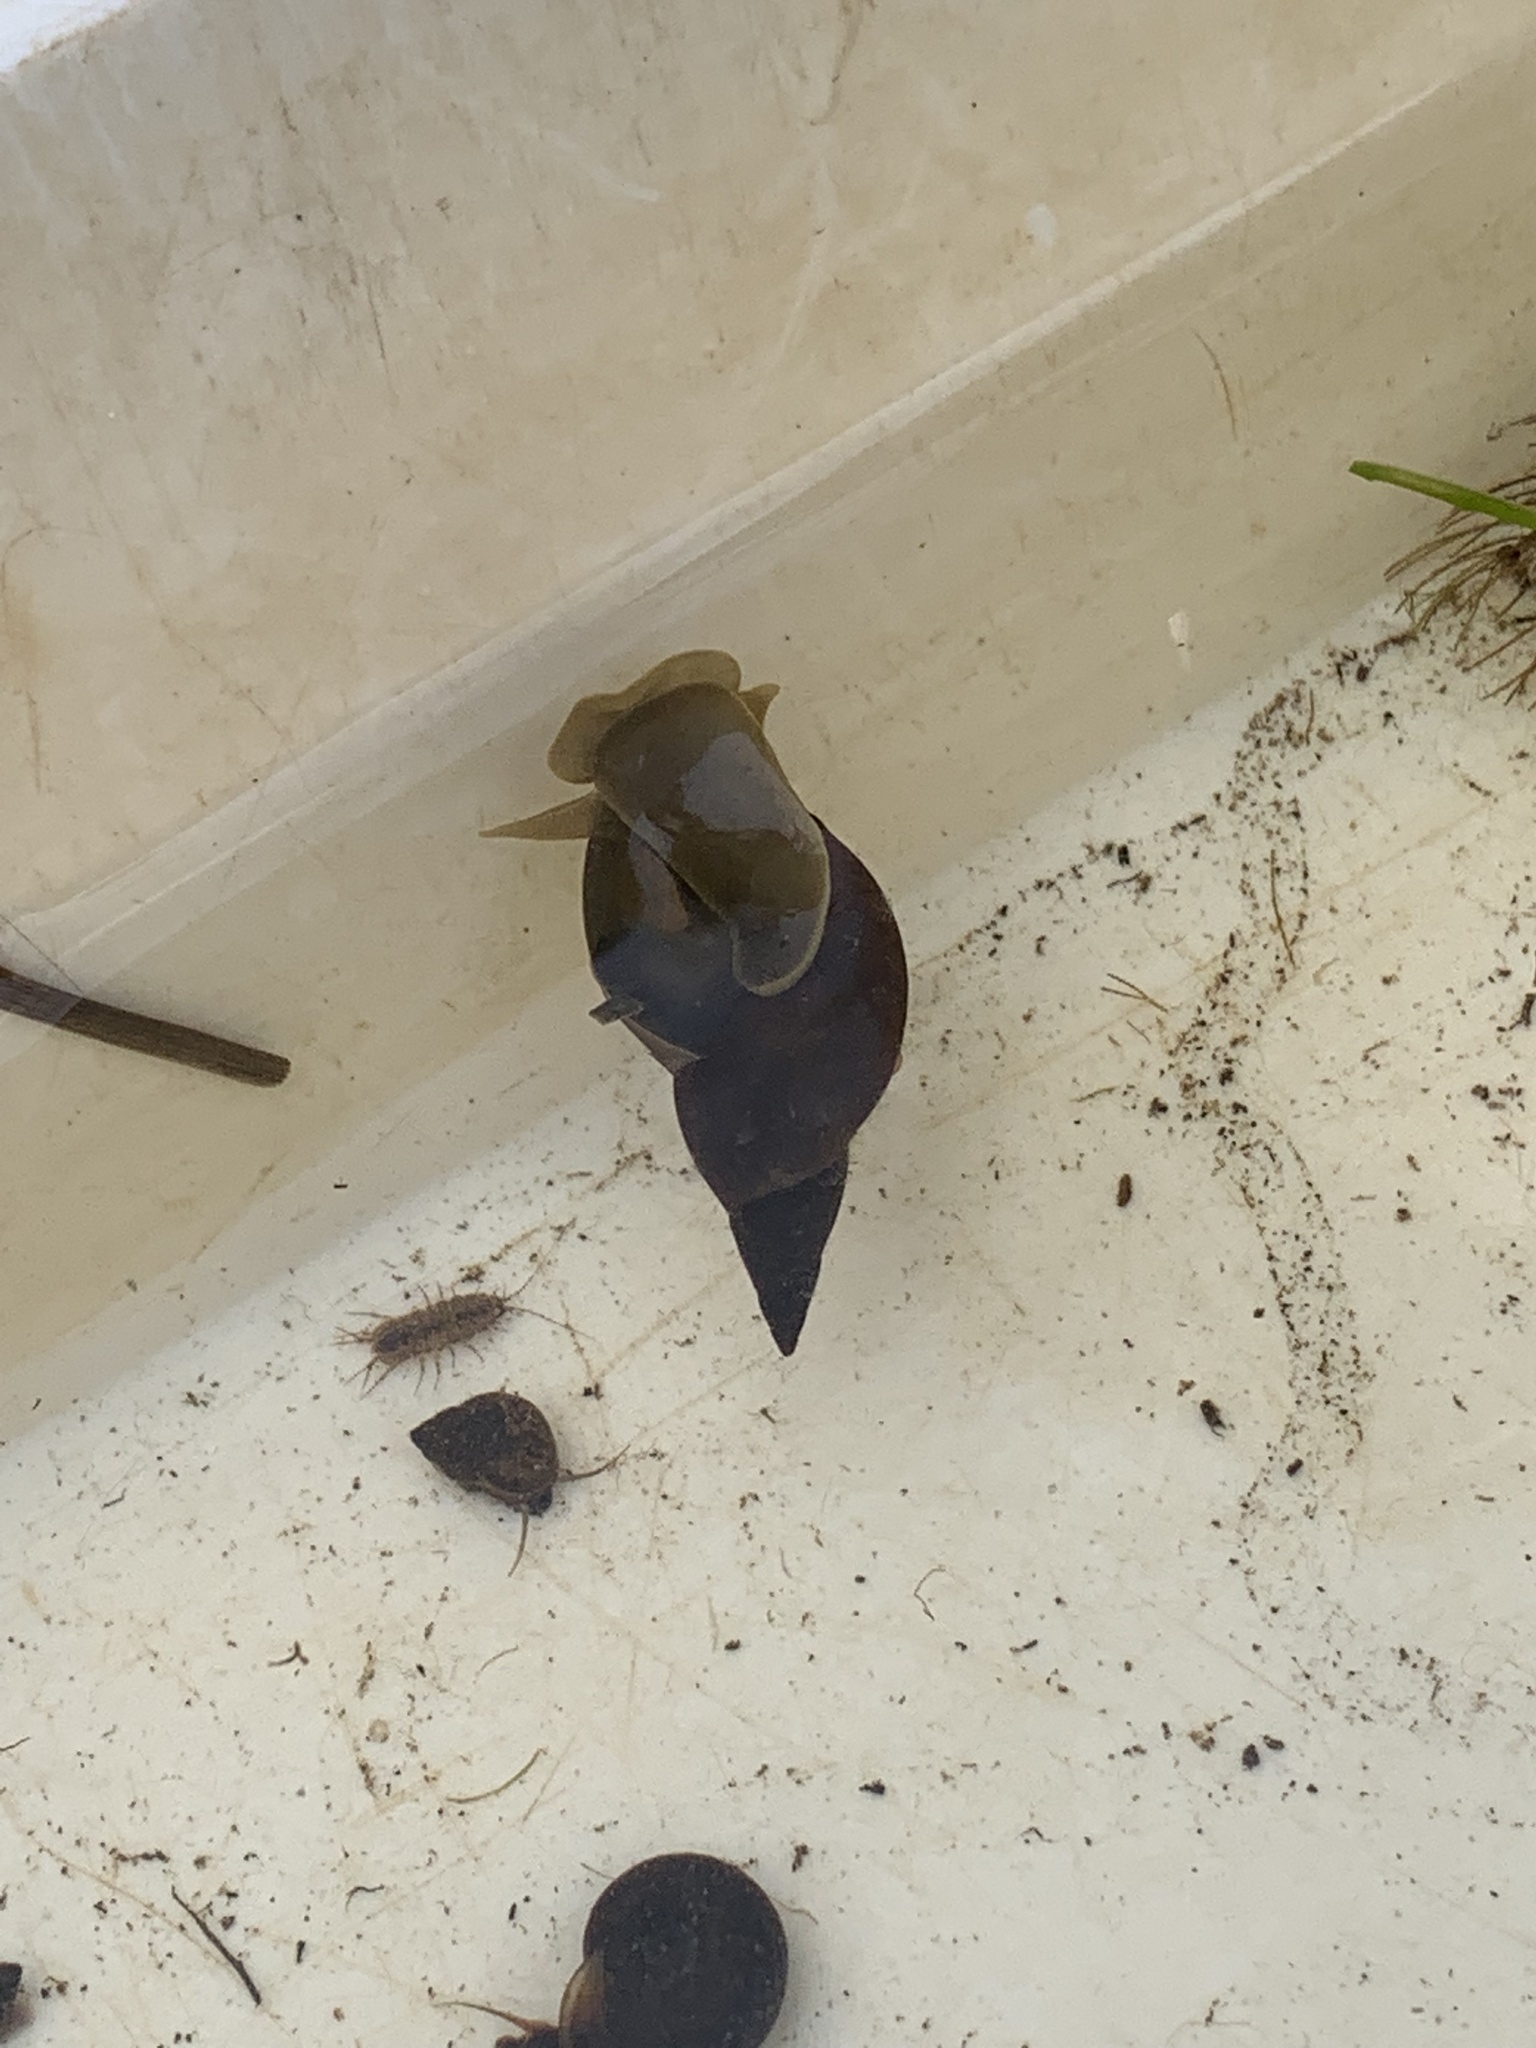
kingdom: Animalia
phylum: Mollusca
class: Gastropoda
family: Lymnaeidae
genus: Lymnaea
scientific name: Lymnaea stagnalis
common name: Great pond snail
